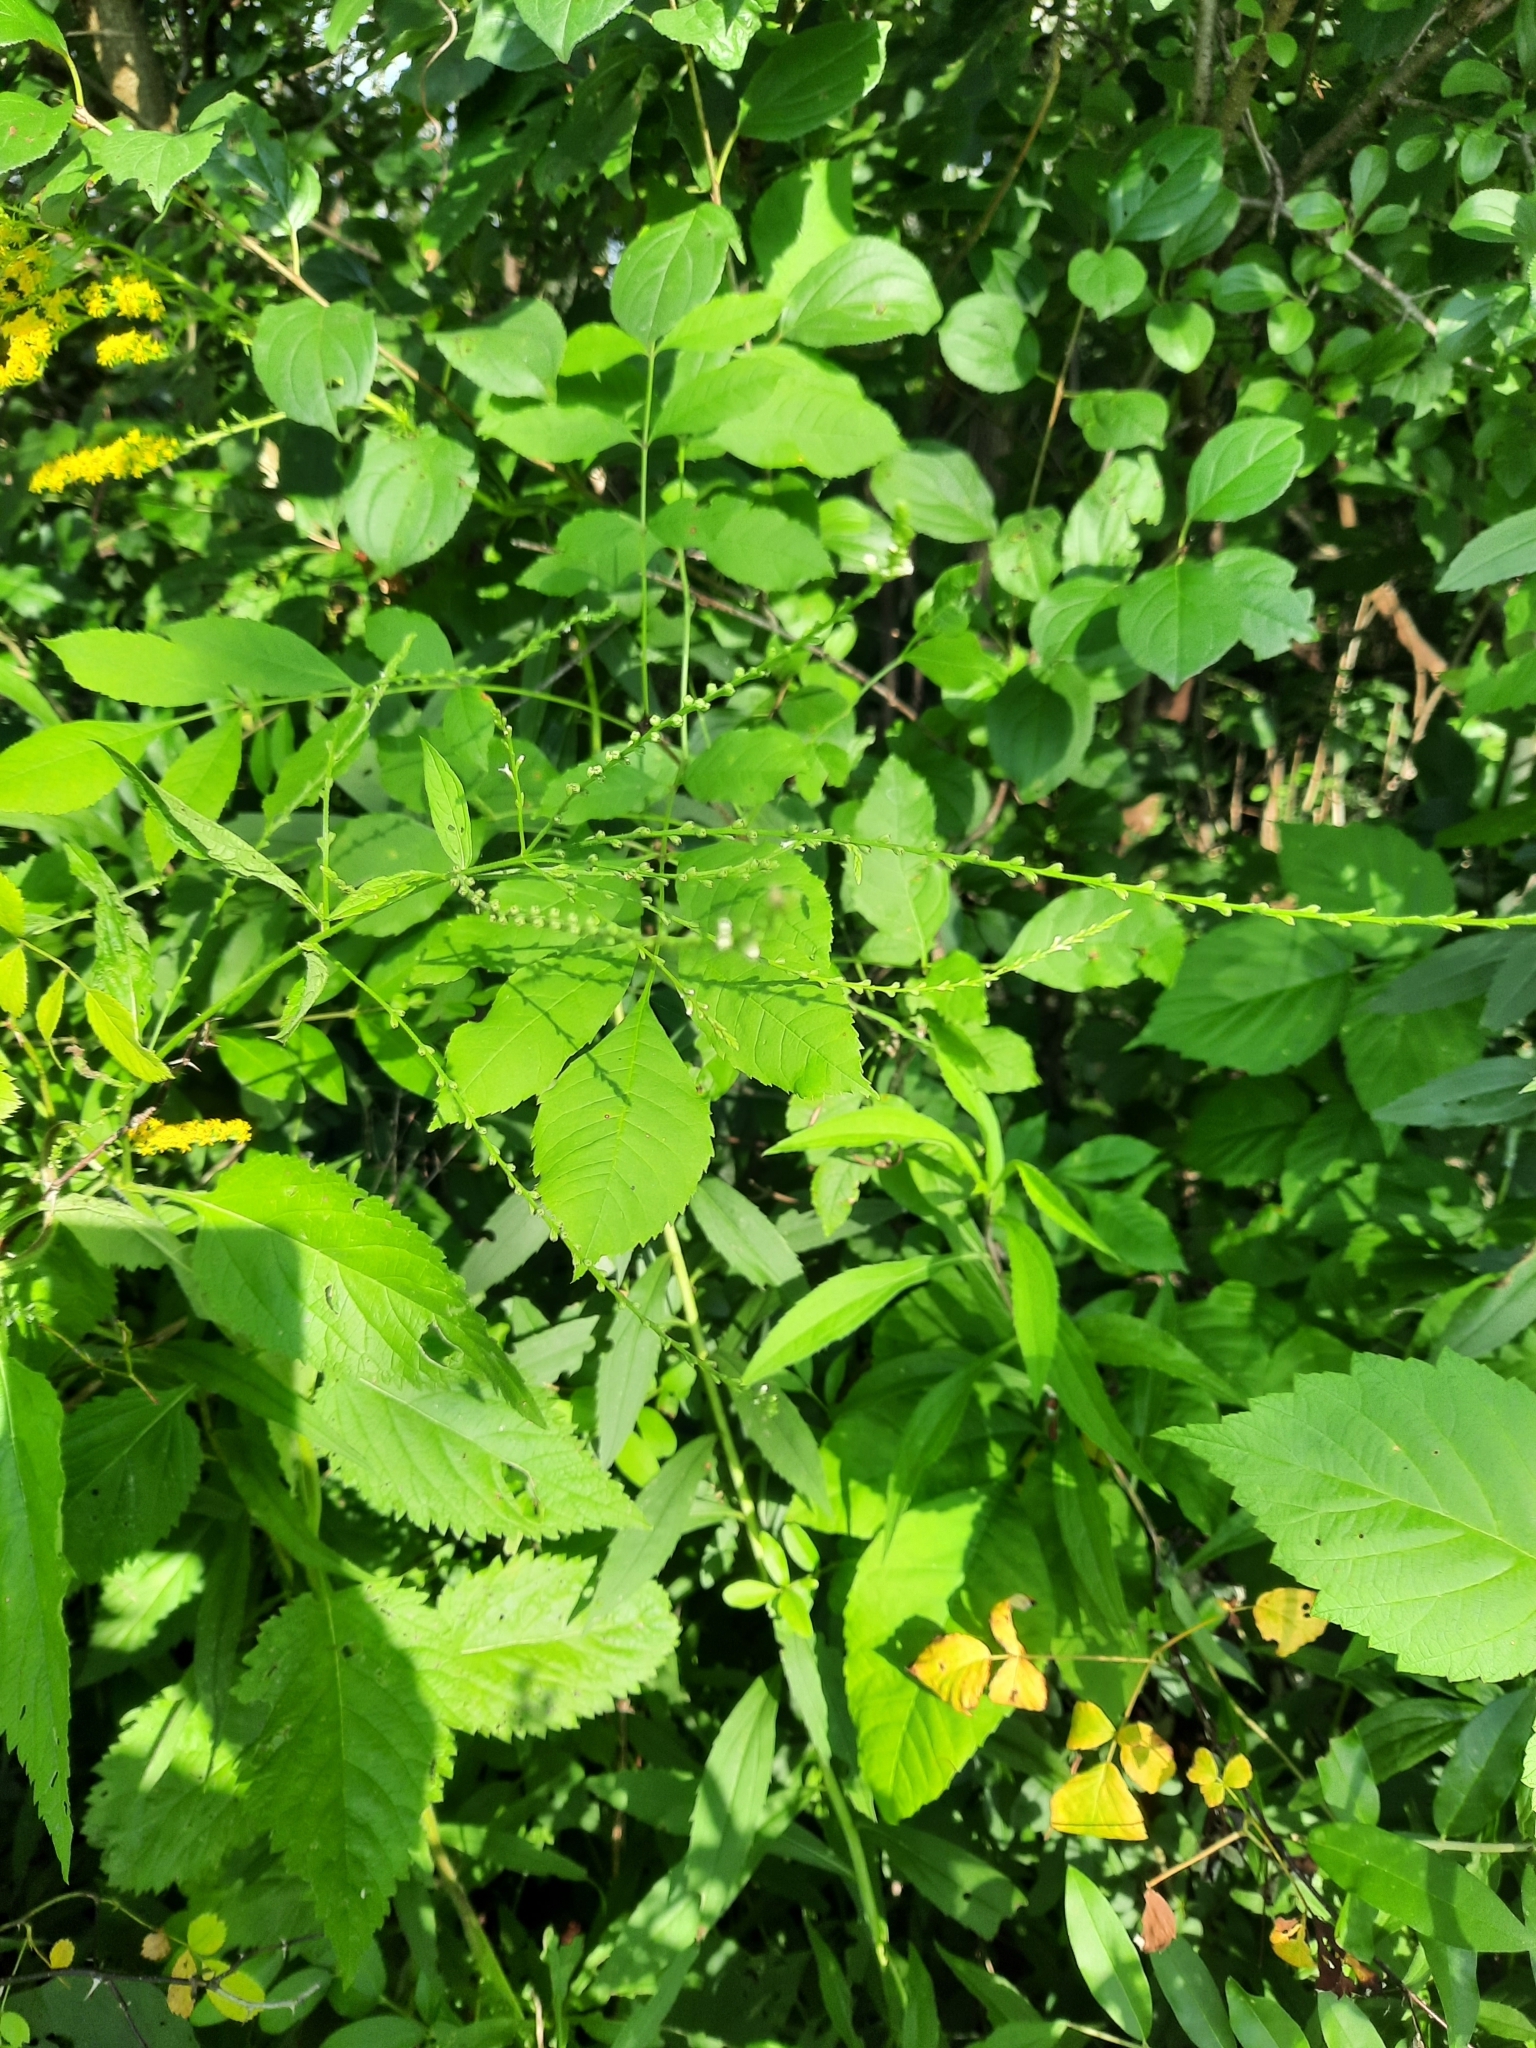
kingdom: Plantae
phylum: Tracheophyta
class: Magnoliopsida
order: Lamiales
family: Verbenaceae
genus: Verbena
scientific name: Verbena urticifolia
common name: Nettle-leaved vervain
